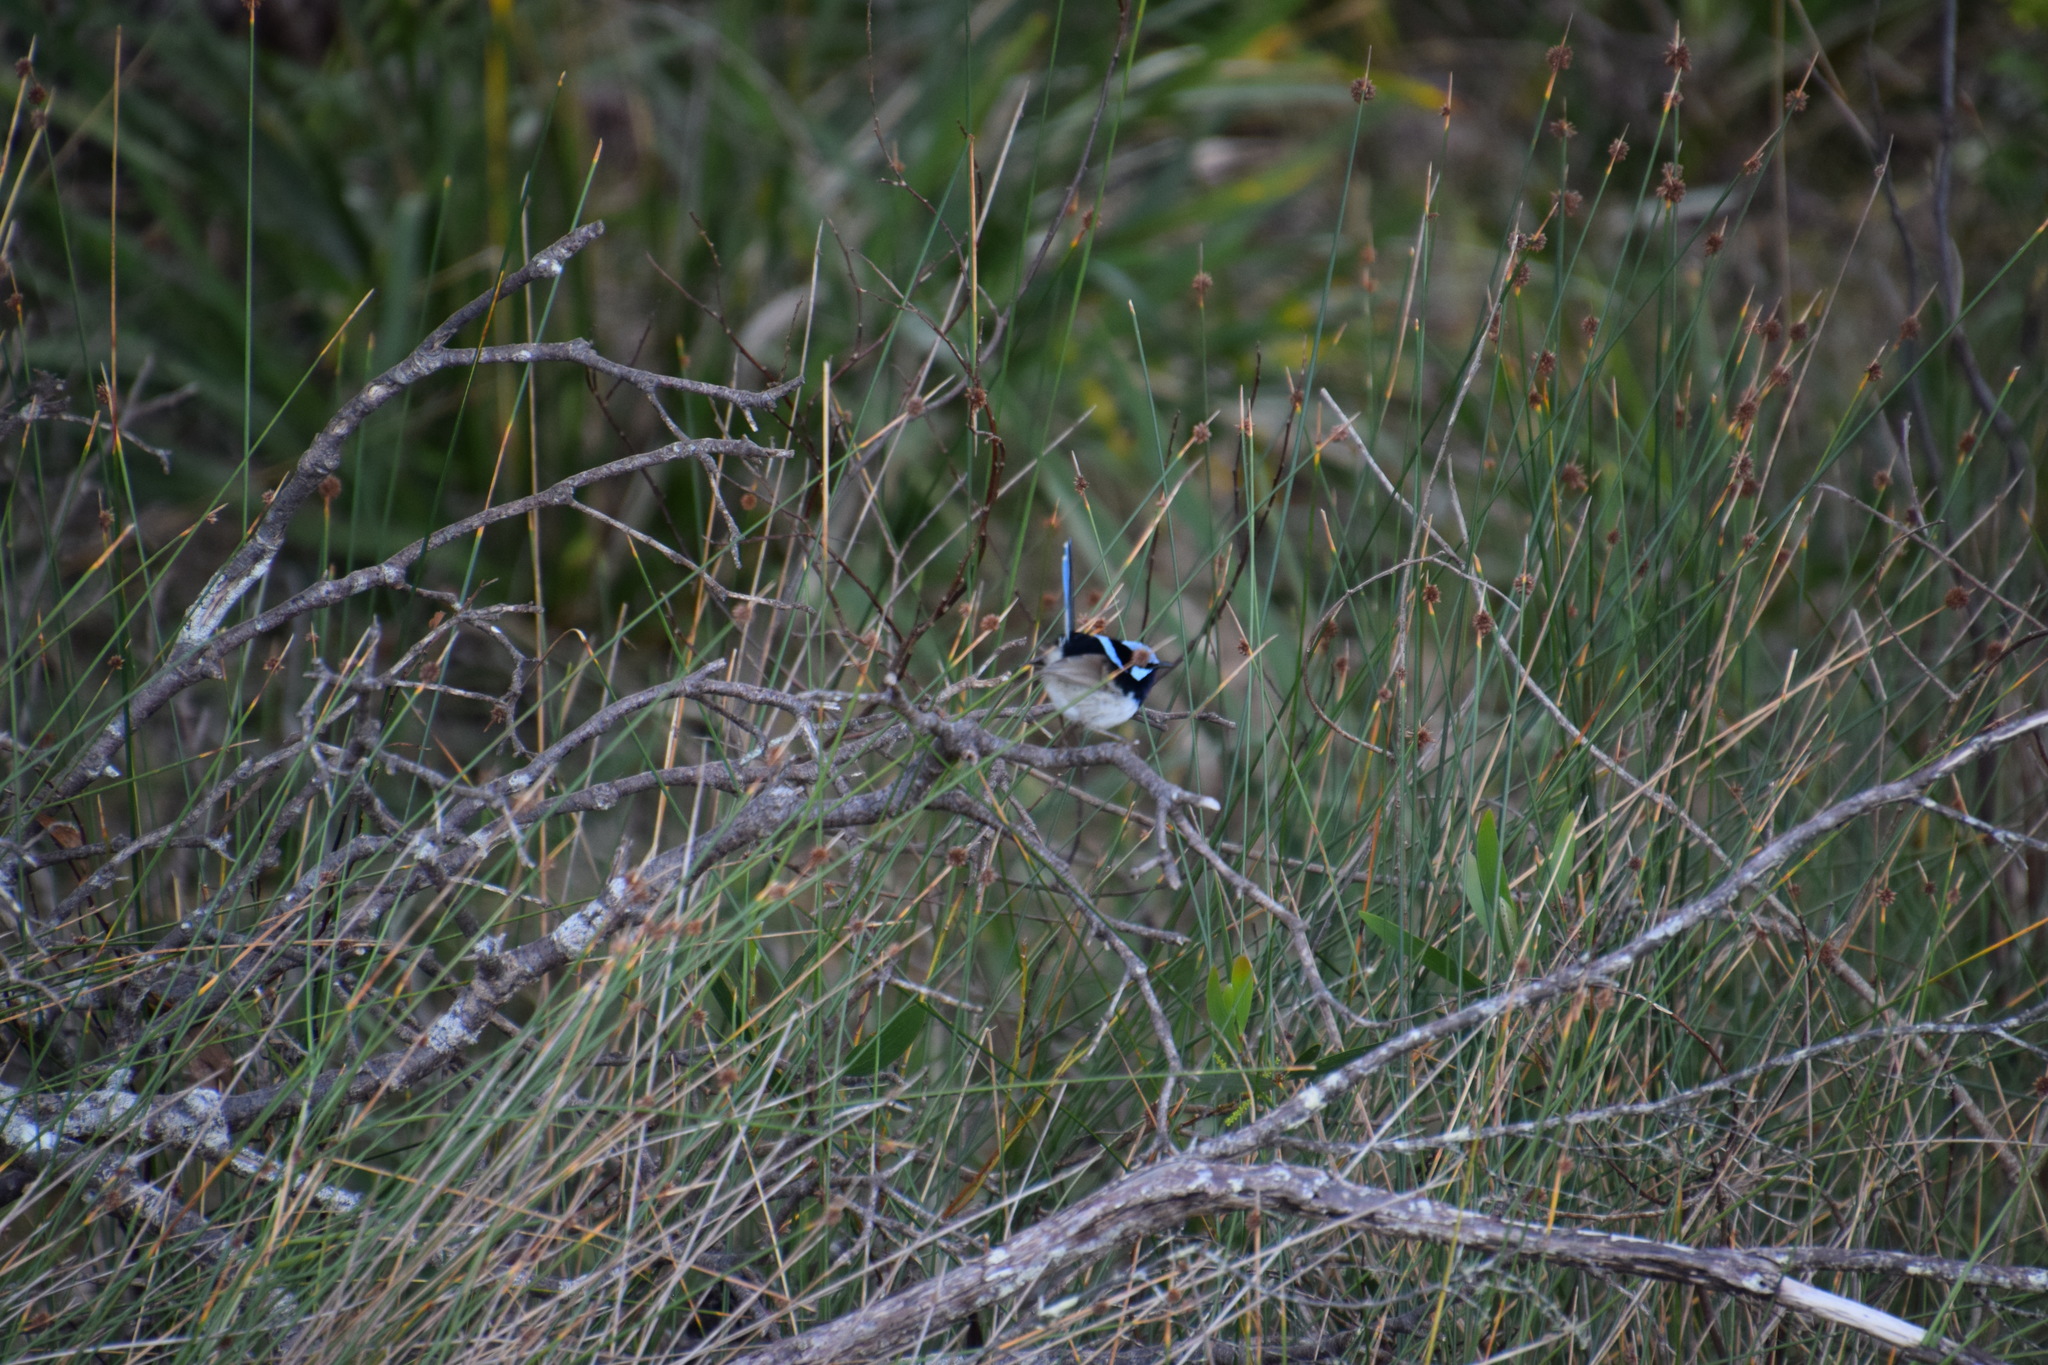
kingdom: Animalia
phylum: Chordata
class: Aves
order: Passeriformes
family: Maluridae
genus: Malurus
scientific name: Malurus cyaneus
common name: Superb fairywren
